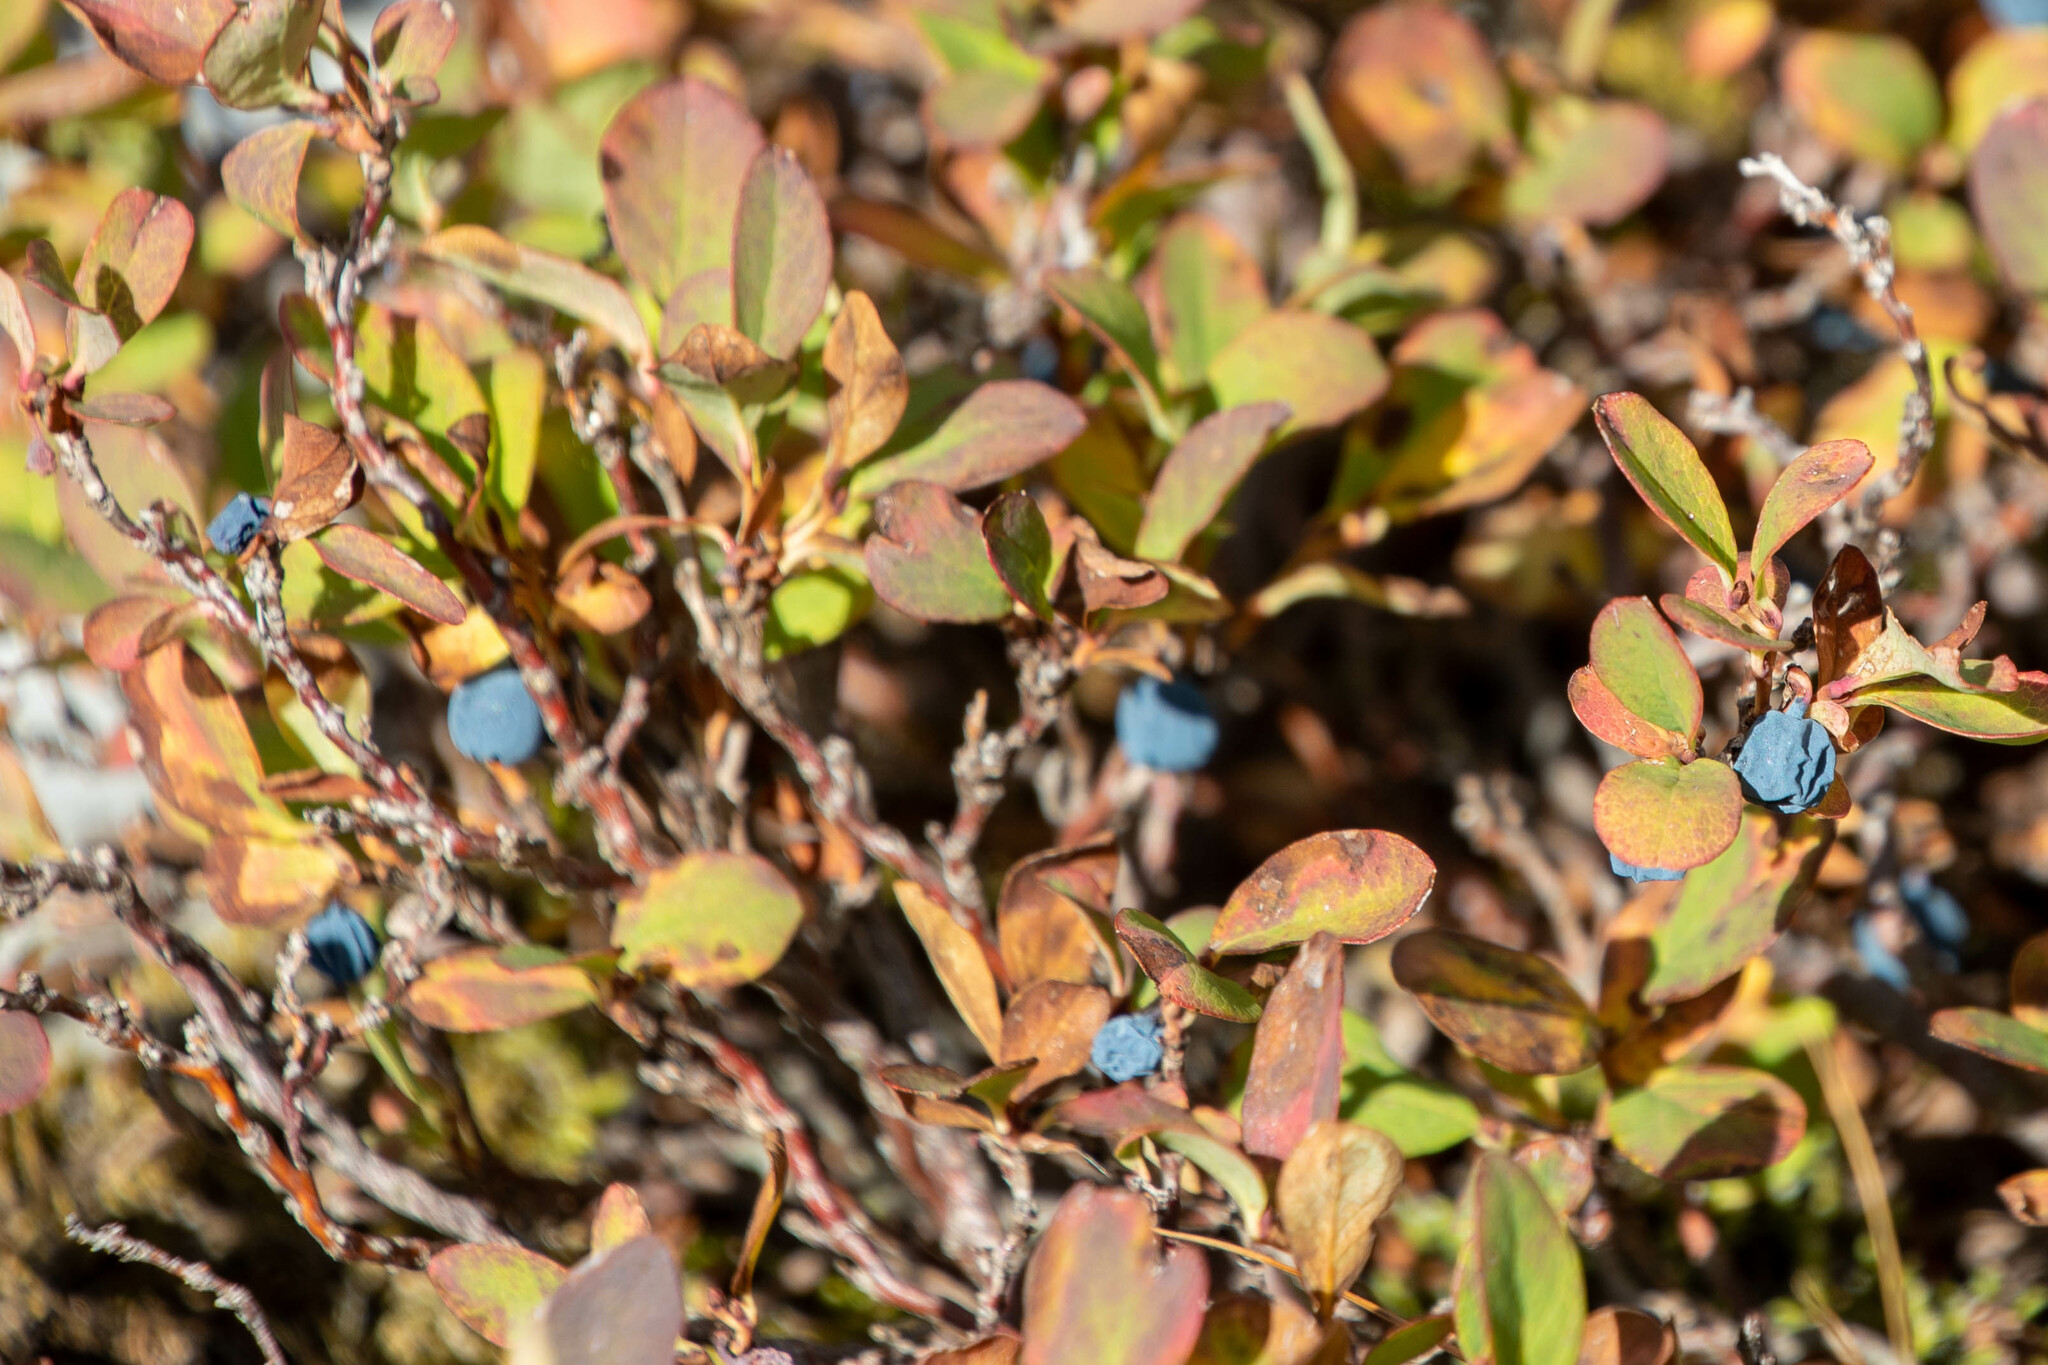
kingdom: Plantae
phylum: Tracheophyta
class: Magnoliopsida
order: Ericales
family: Ericaceae
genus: Vaccinium
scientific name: Vaccinium uliginosum
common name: Bog bilberry
